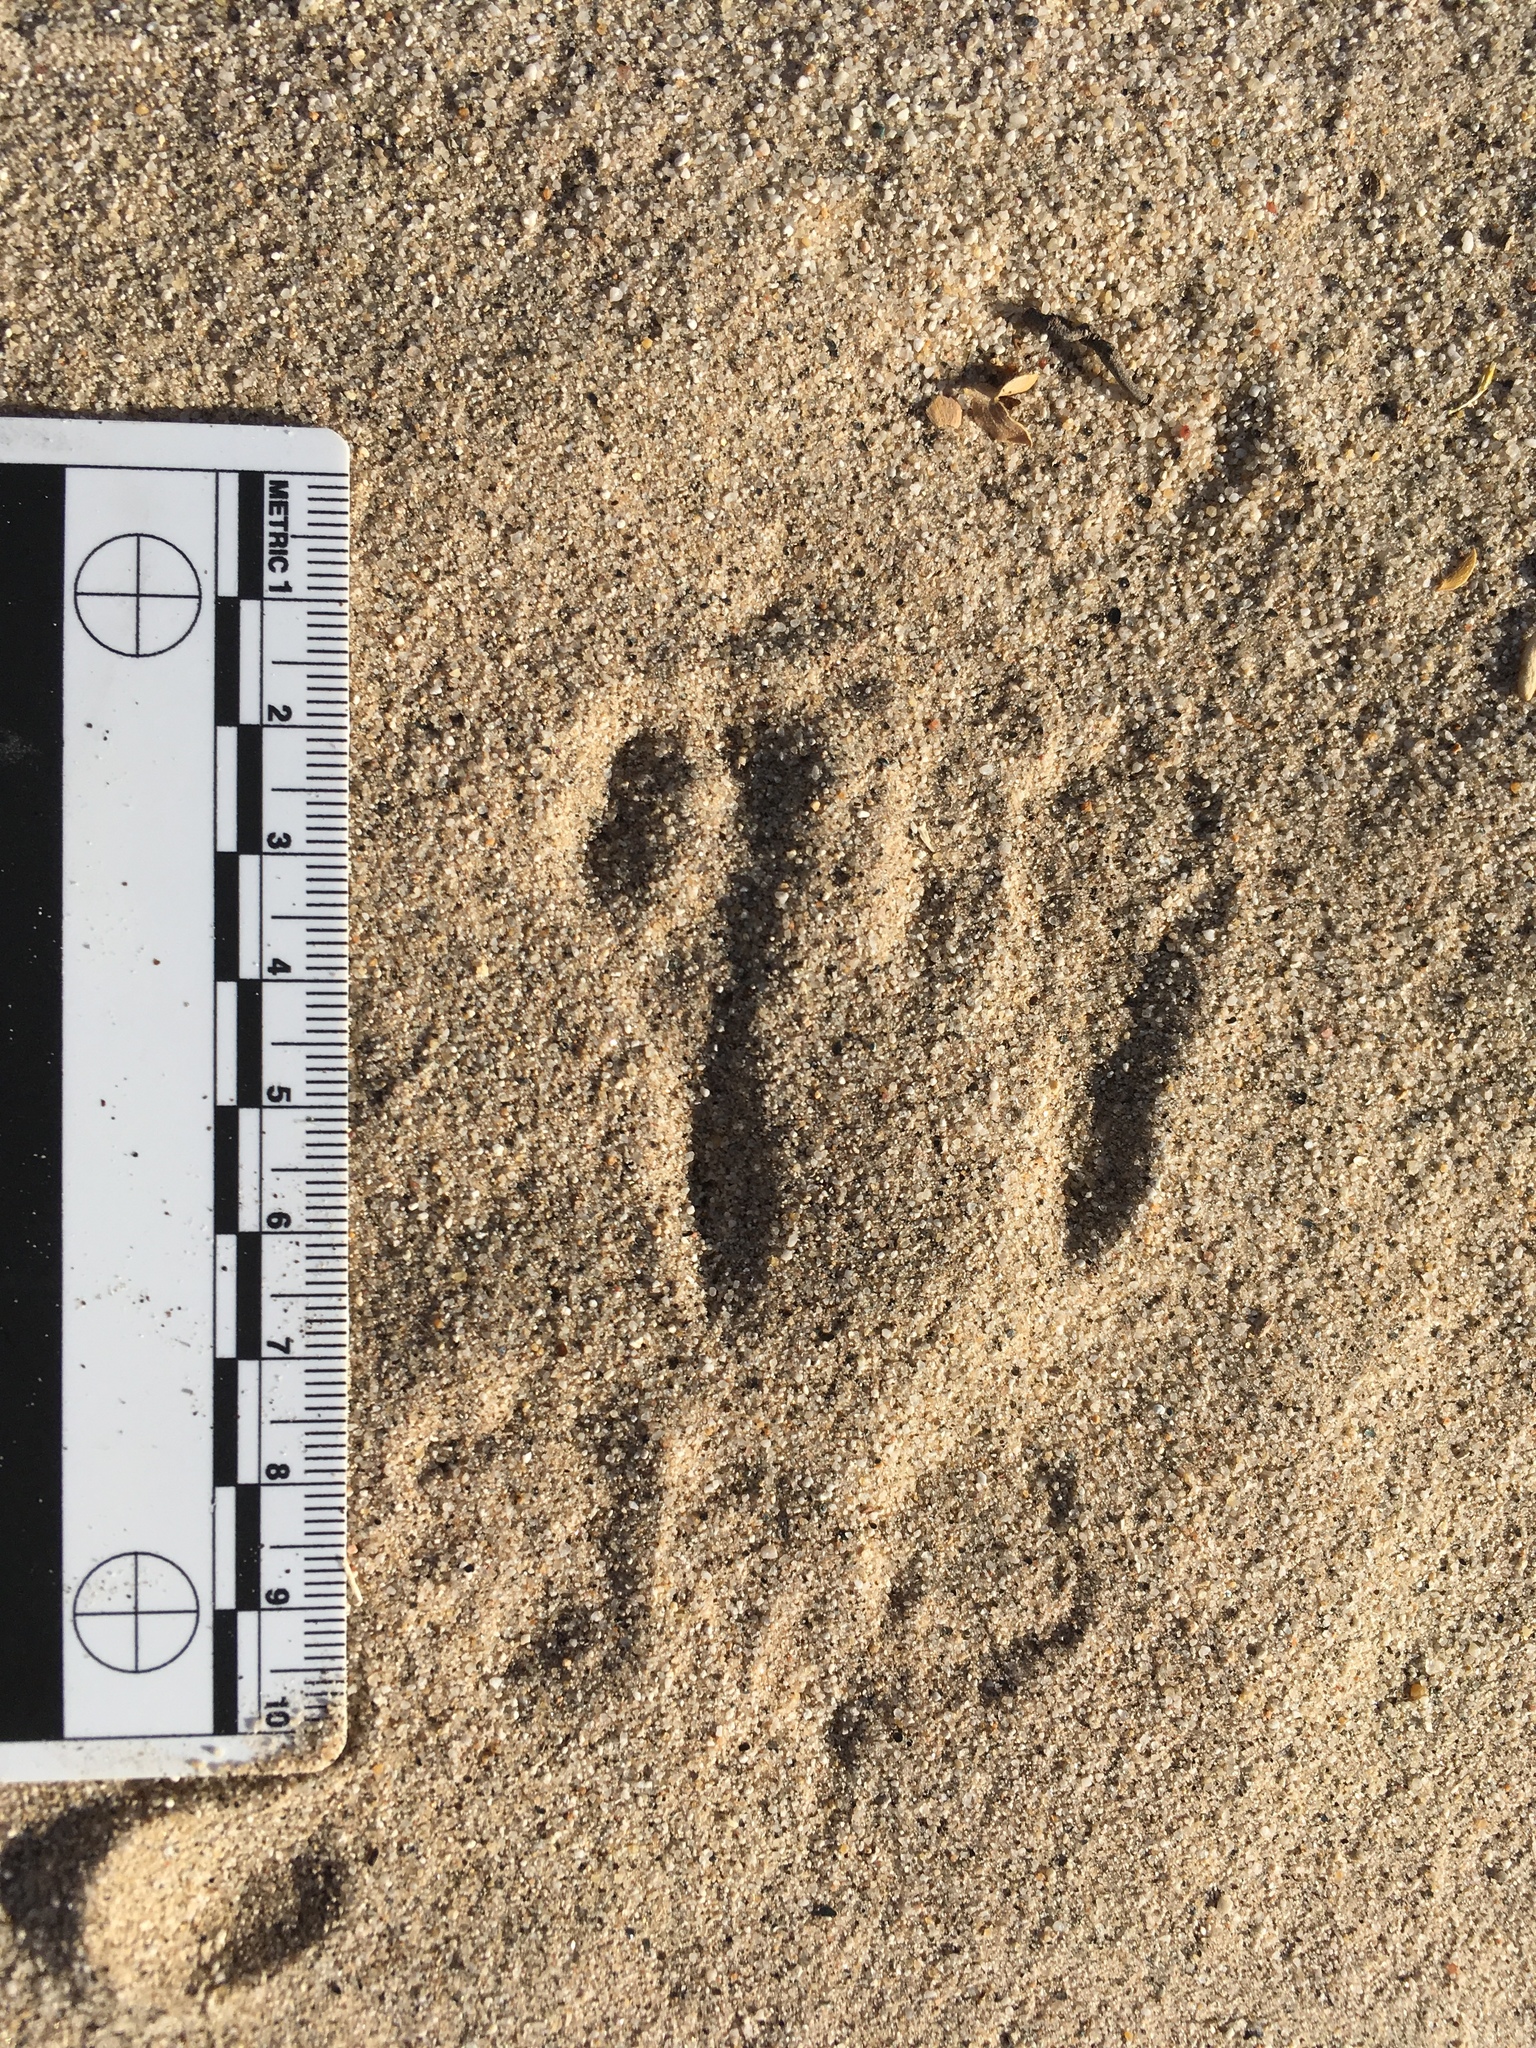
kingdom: Animalia
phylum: Chordata
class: Mammalia
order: Rodentia
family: Heteromyidae
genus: Dipodomys
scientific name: Dipodomys deserti
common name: Desert kangaroo rat
